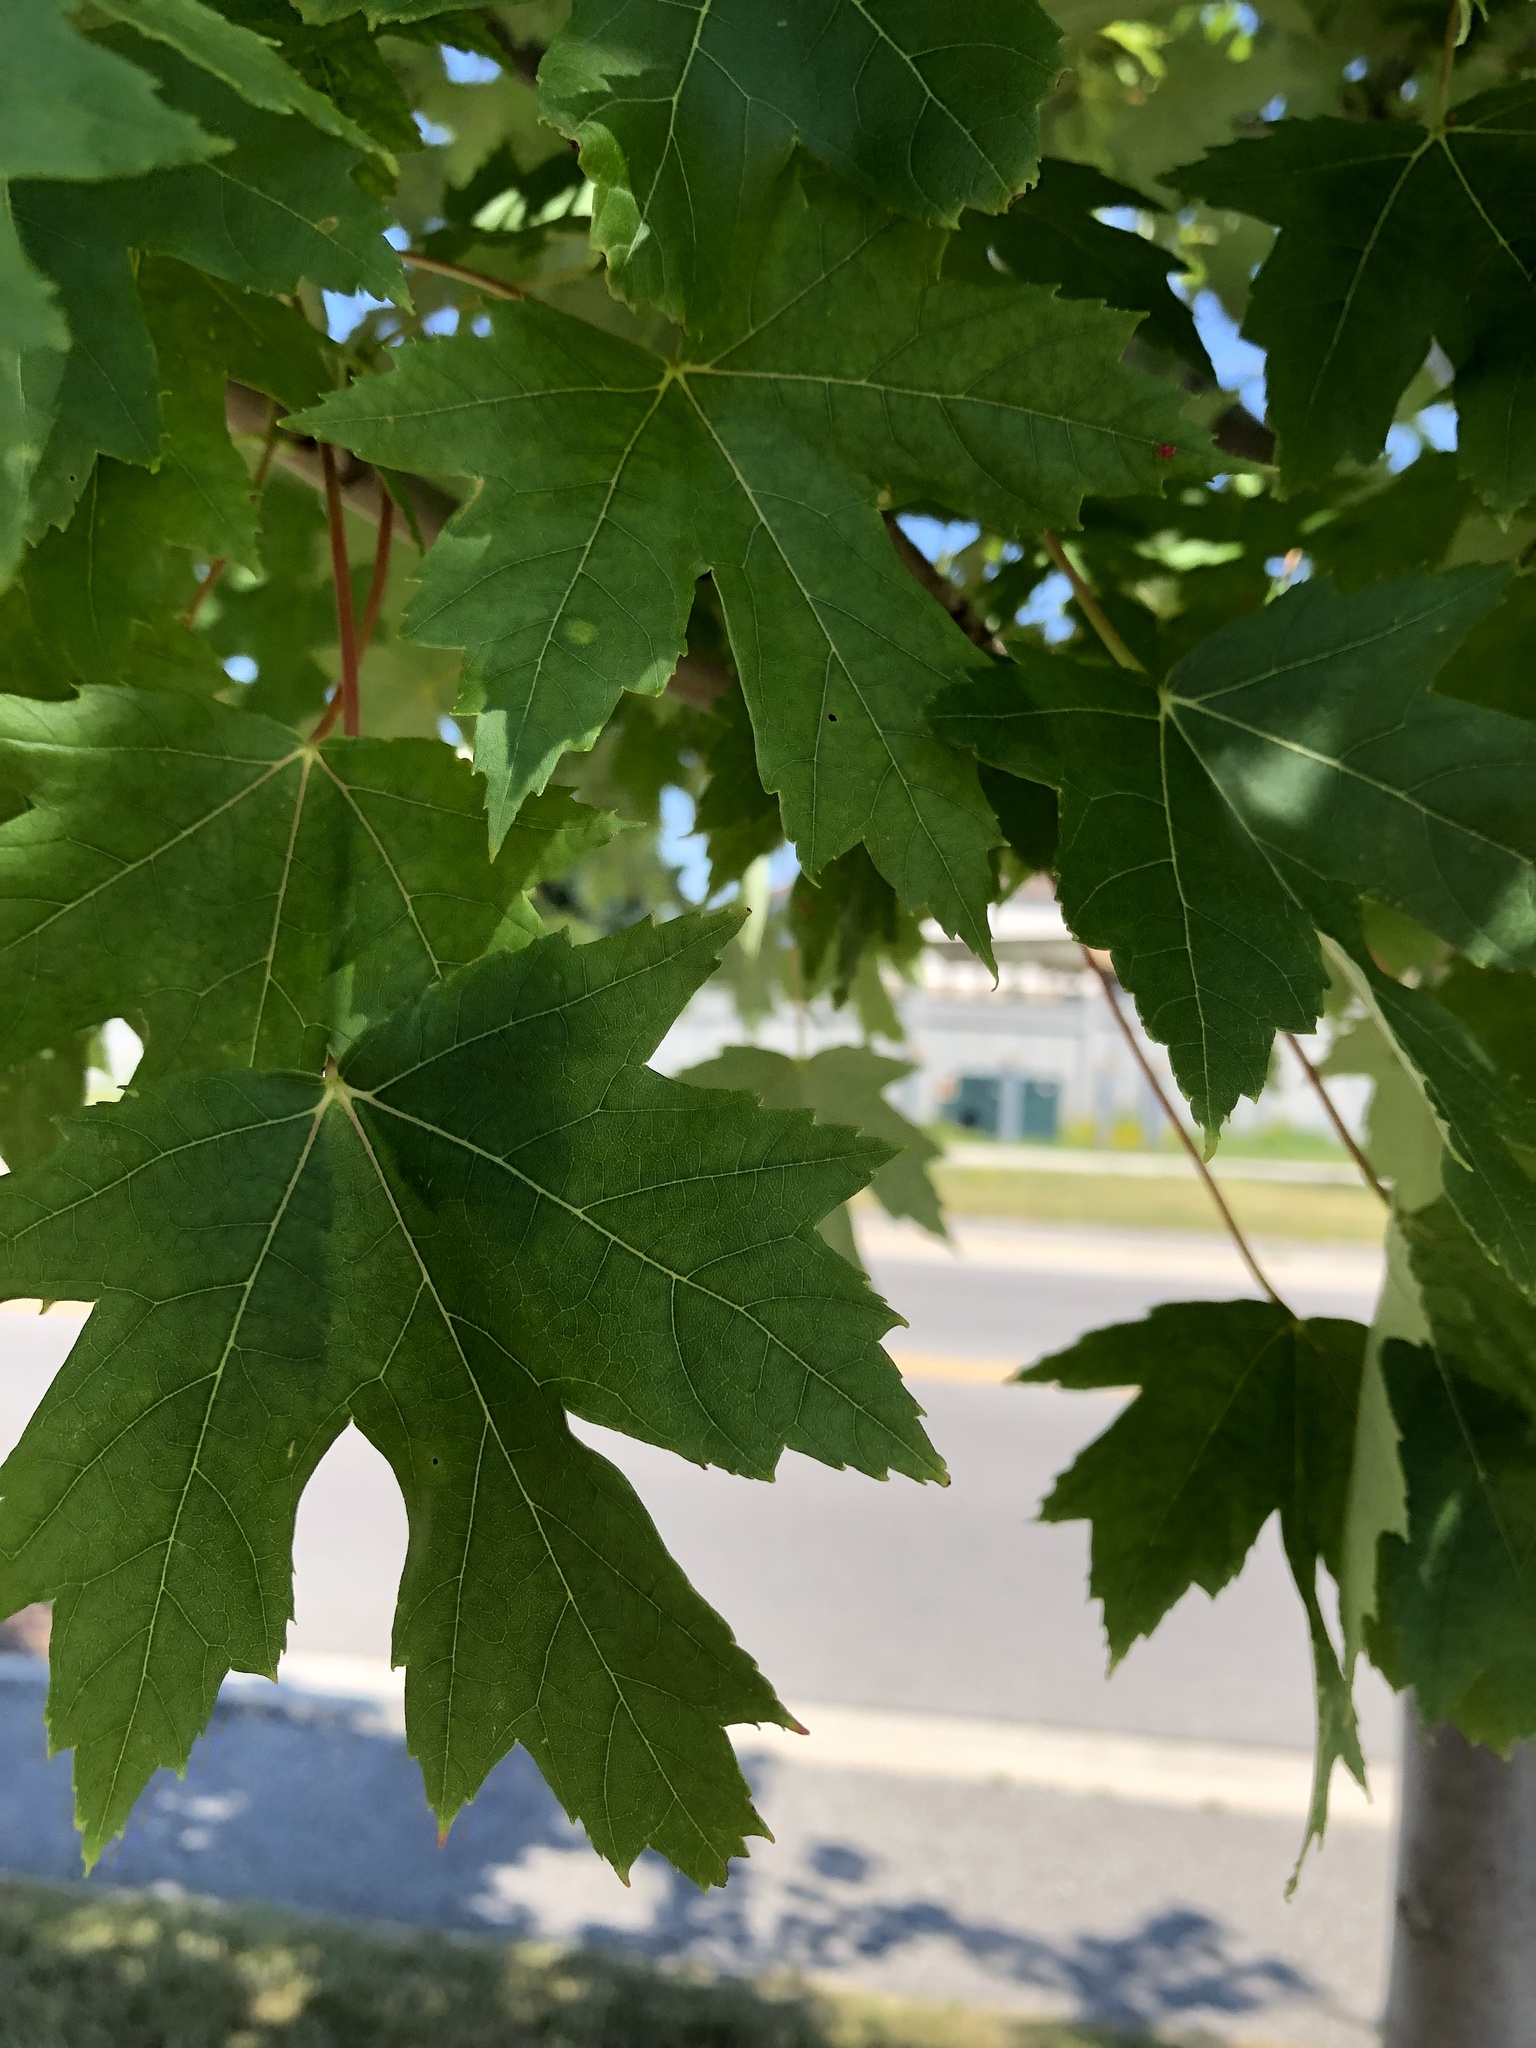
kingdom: Plantae
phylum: Tracheophyta
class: Magnoliopsida
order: Sapindales
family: Sapindaceae
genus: Acer
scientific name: Acer freemanii
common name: Freeman maple
